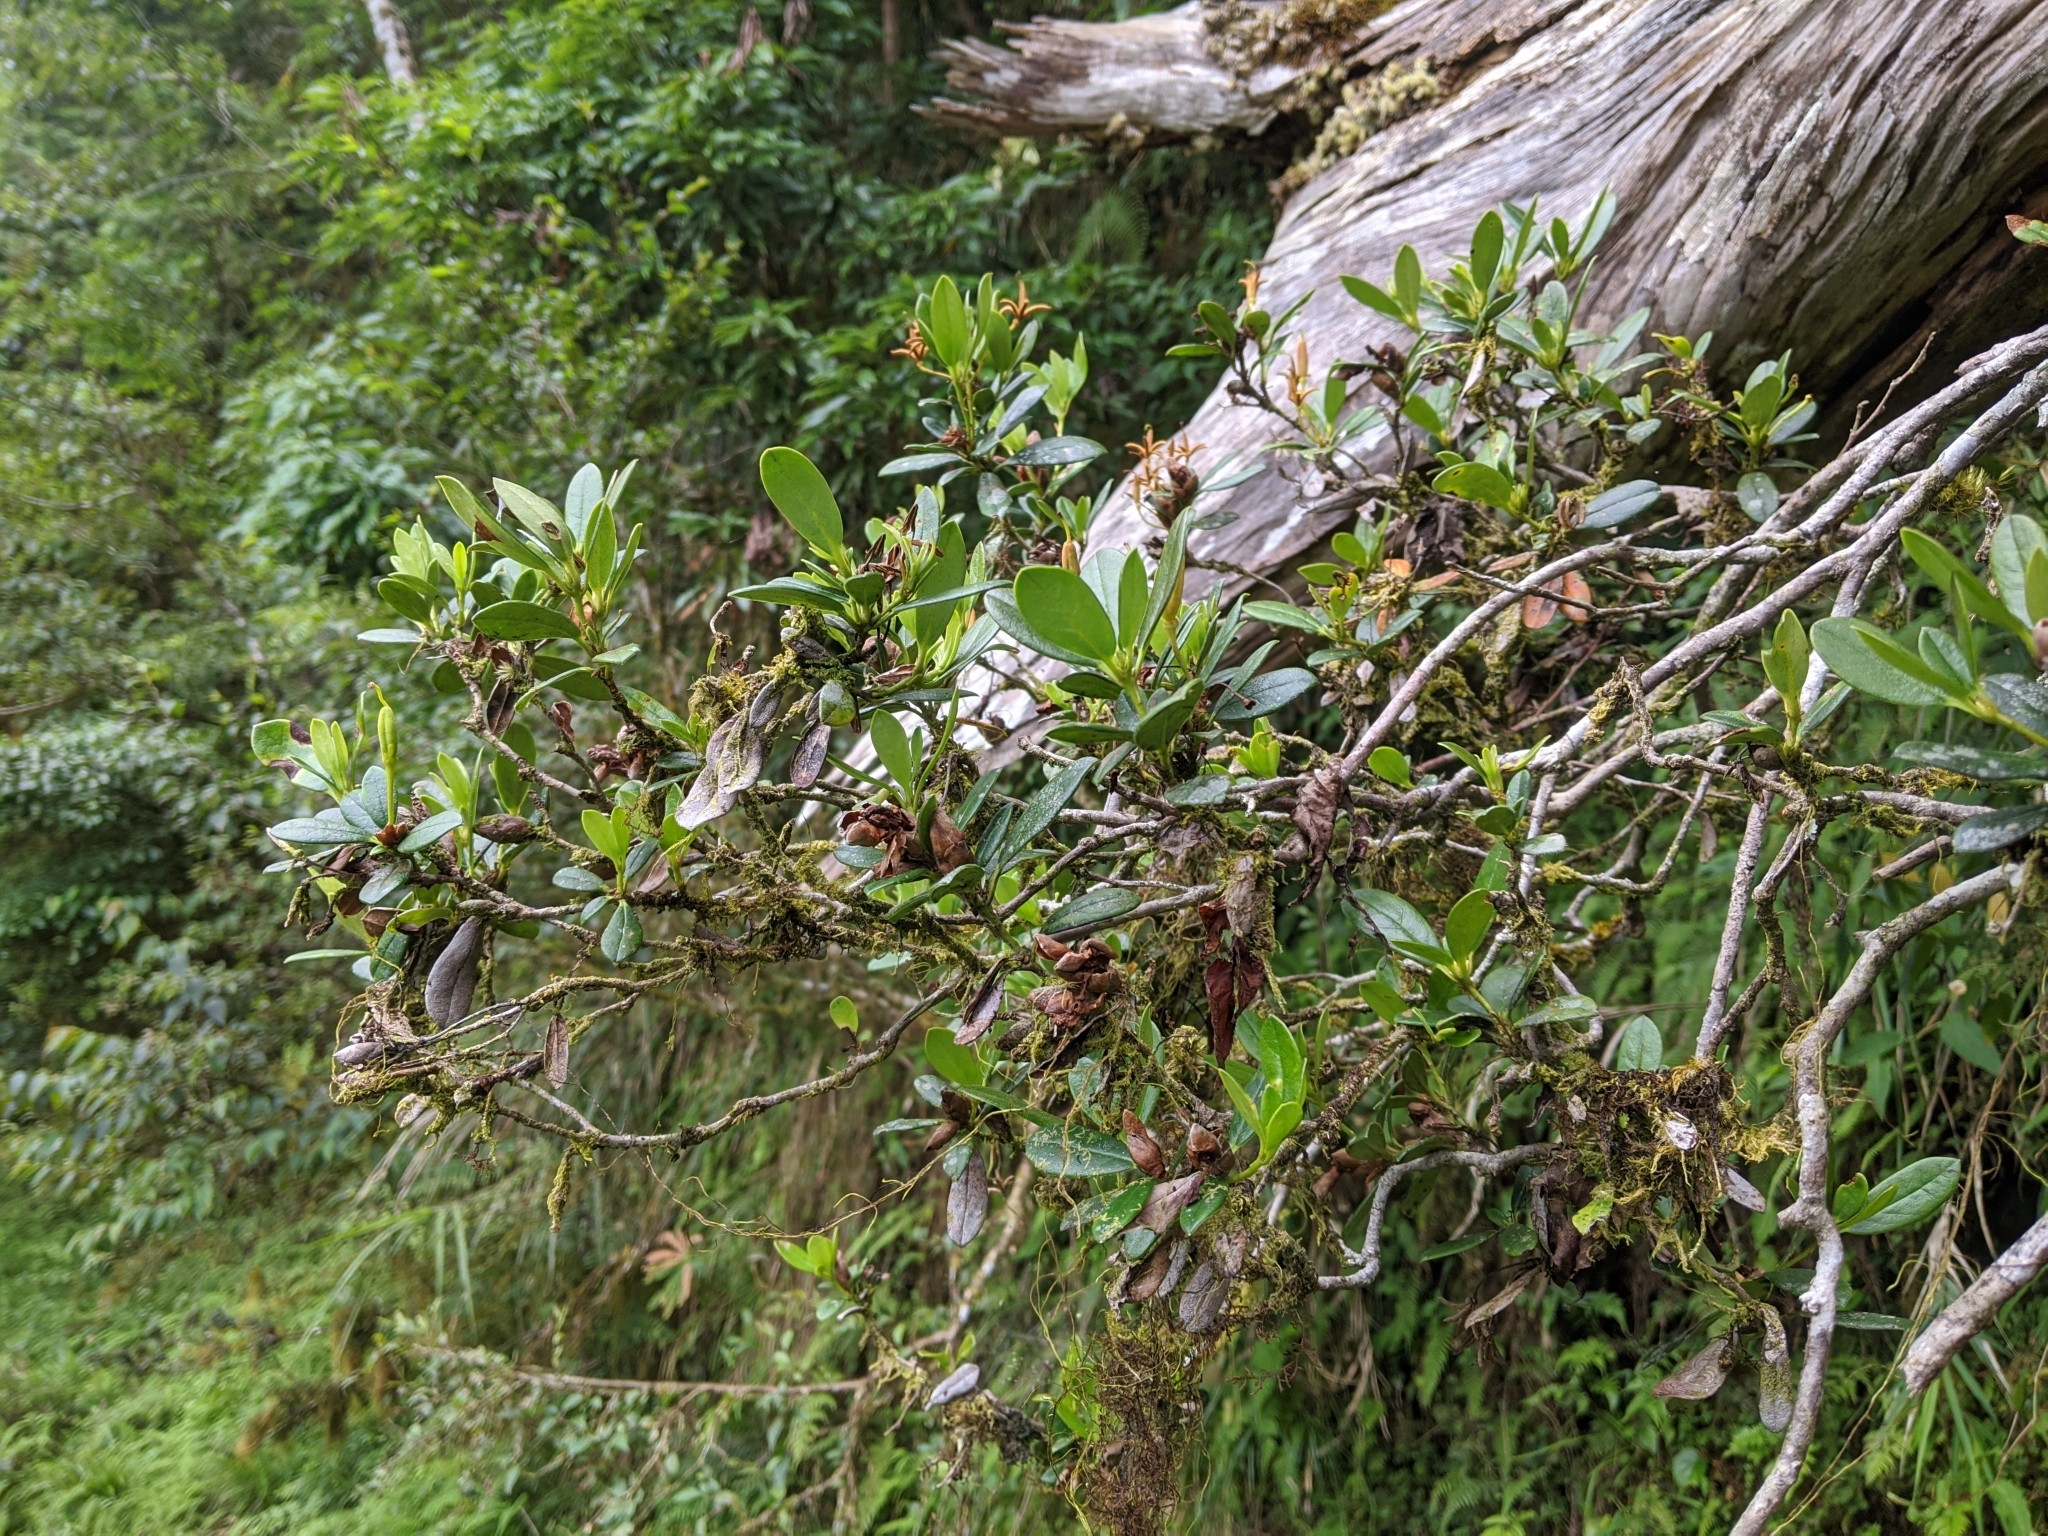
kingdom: Plantae
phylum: Tracheophyta
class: Magnoliopsida
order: Ericales
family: Ericaceae
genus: Rhododendron
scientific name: Rhododendron kawakamii
